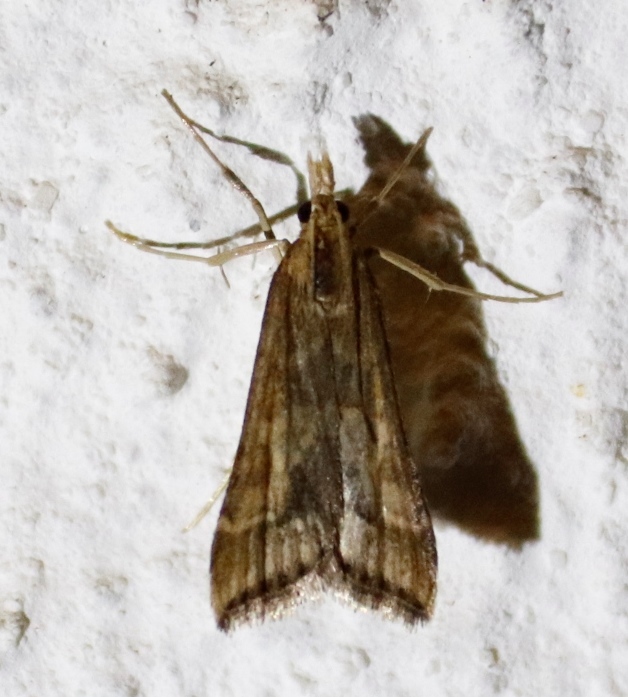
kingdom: Animalia
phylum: Arthropoda
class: Insecta
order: Lepidoptera
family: Crambidae
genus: Diasemia
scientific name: Diasemia disjectalis
